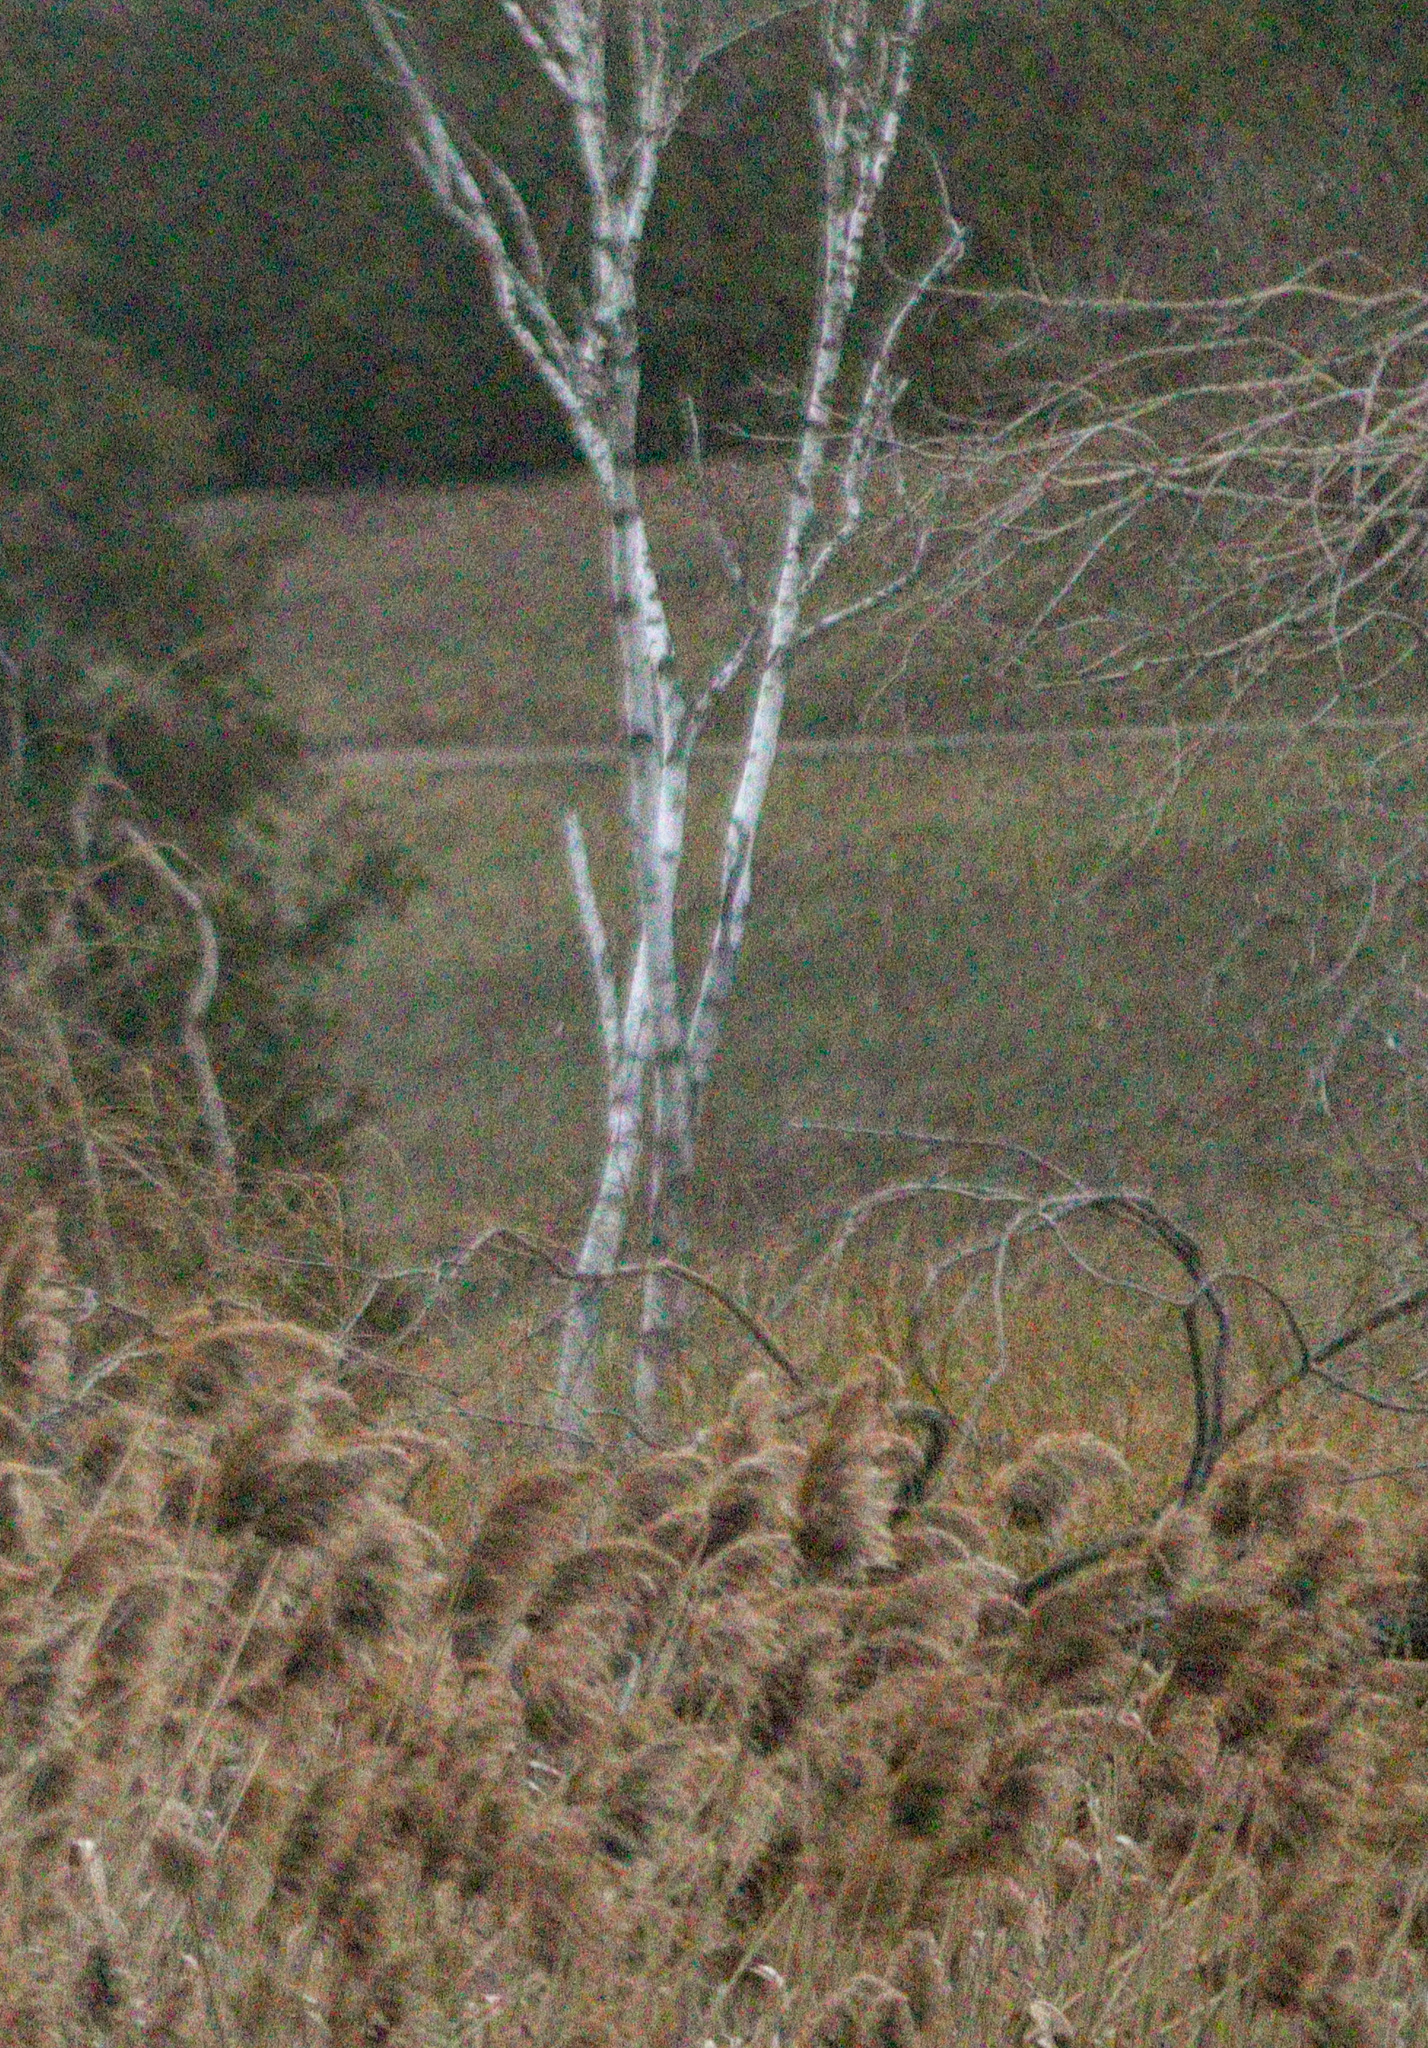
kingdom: Plantae
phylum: Tracheophyta
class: Liliopsida
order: Poales
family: Poaceae
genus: Phragmites
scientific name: Phragmites australis
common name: Common reed
